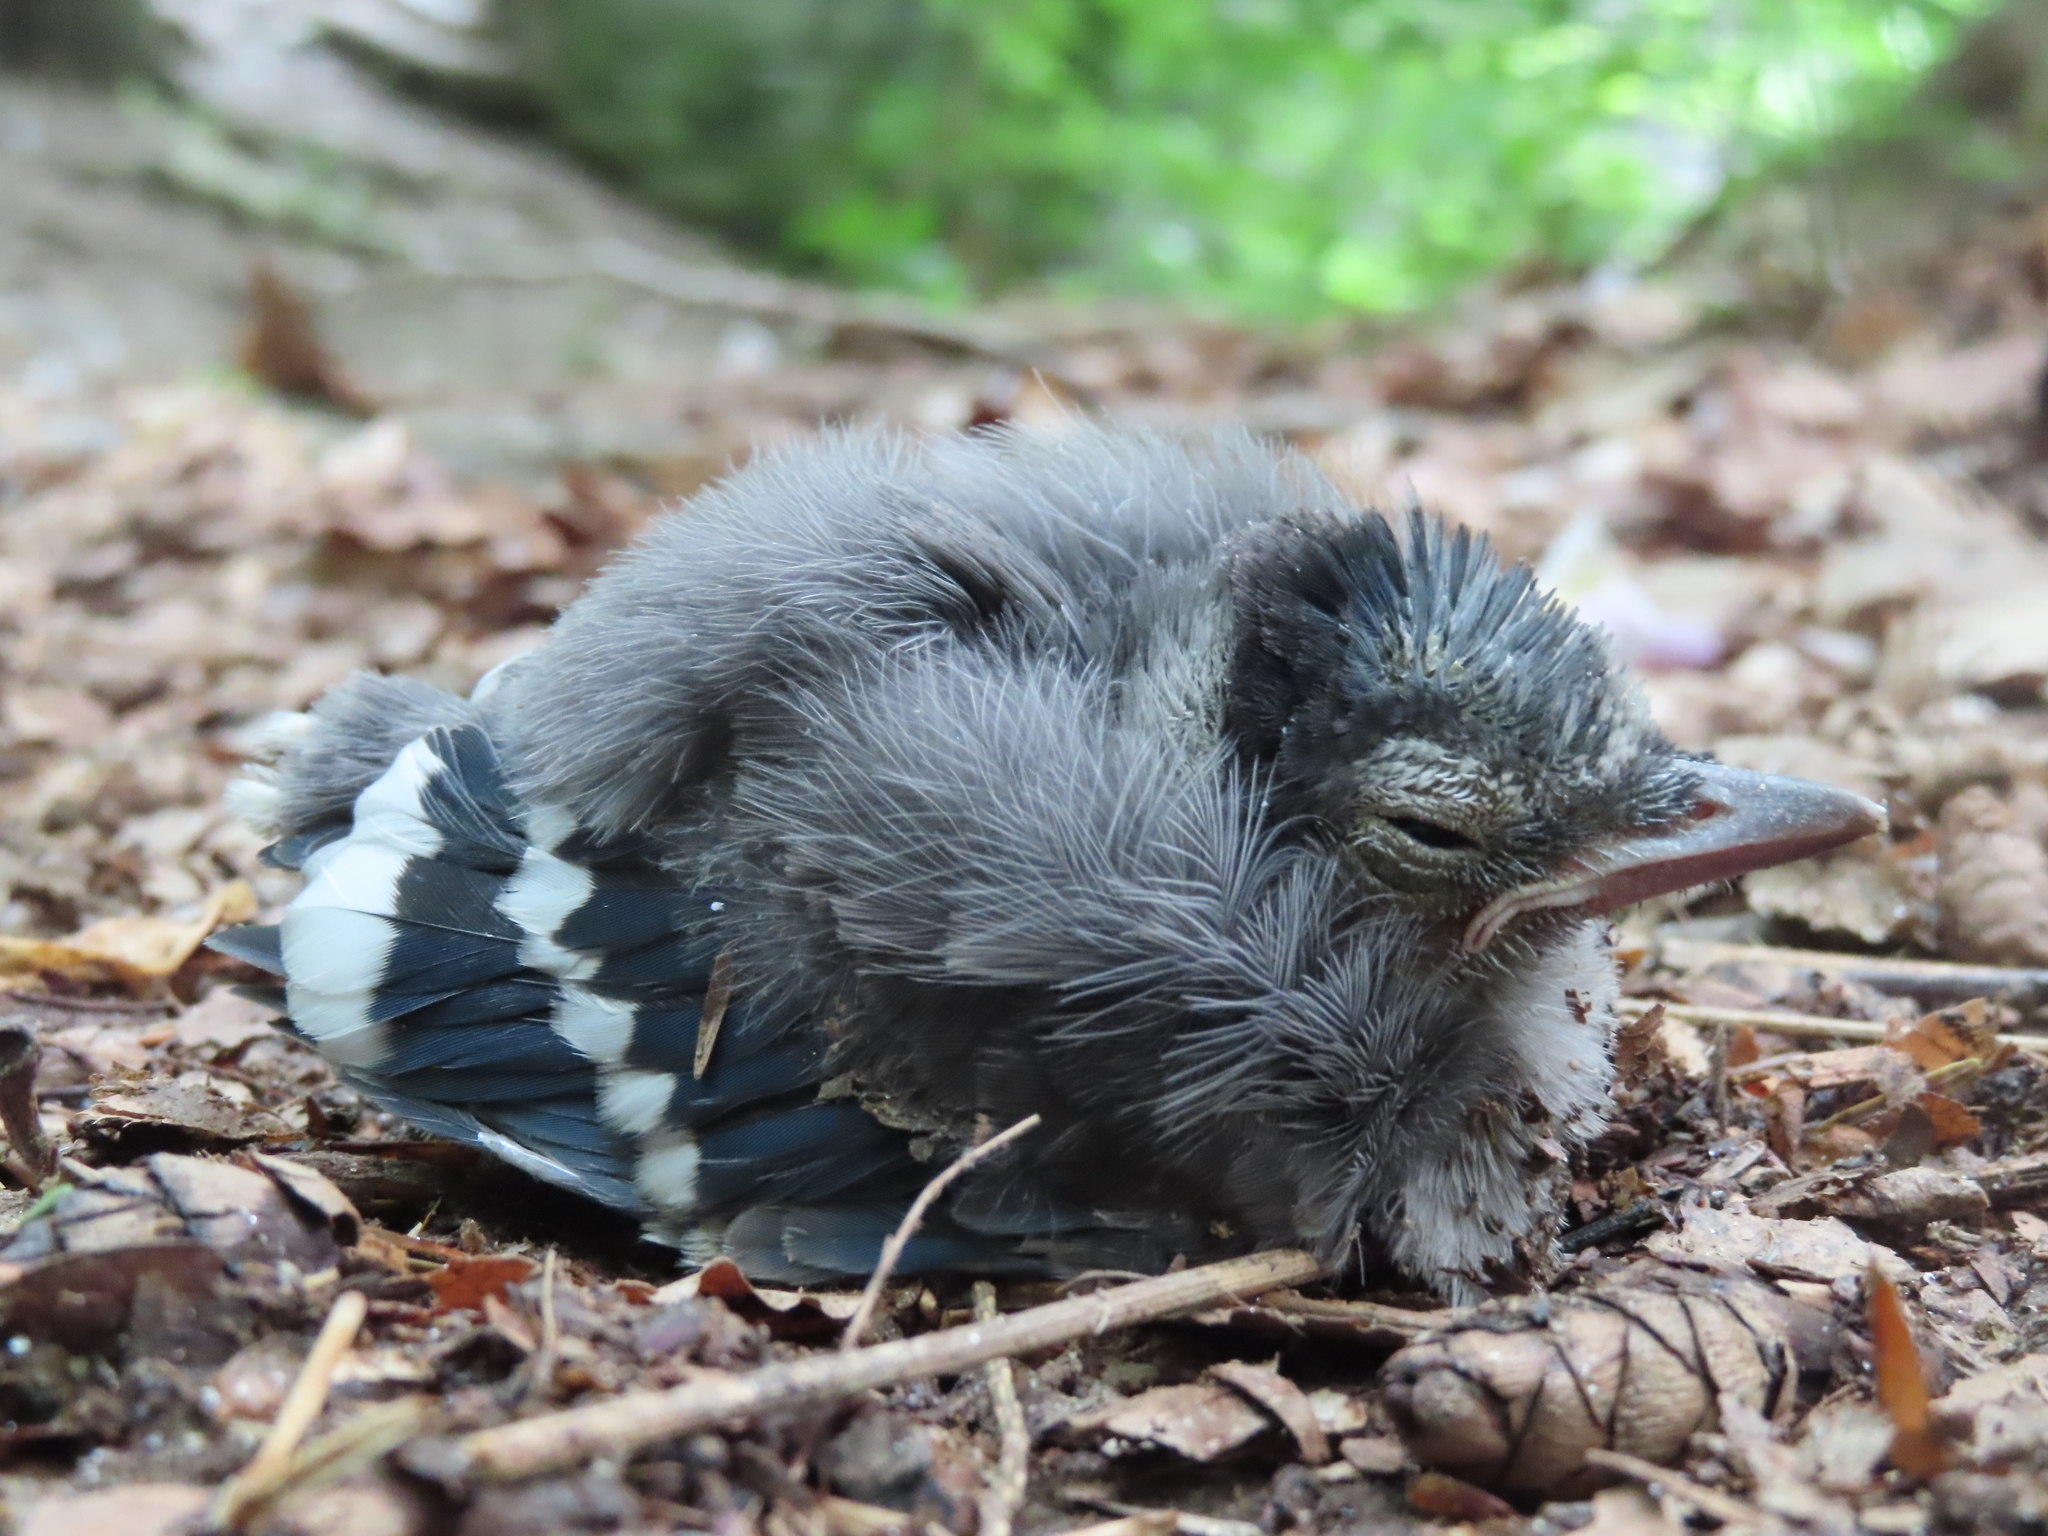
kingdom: Animalia
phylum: Chordata
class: Aves
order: Passeriformes
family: Corvidae
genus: Cyanocitta
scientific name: Cyanocitta cristata
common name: Blue jay
